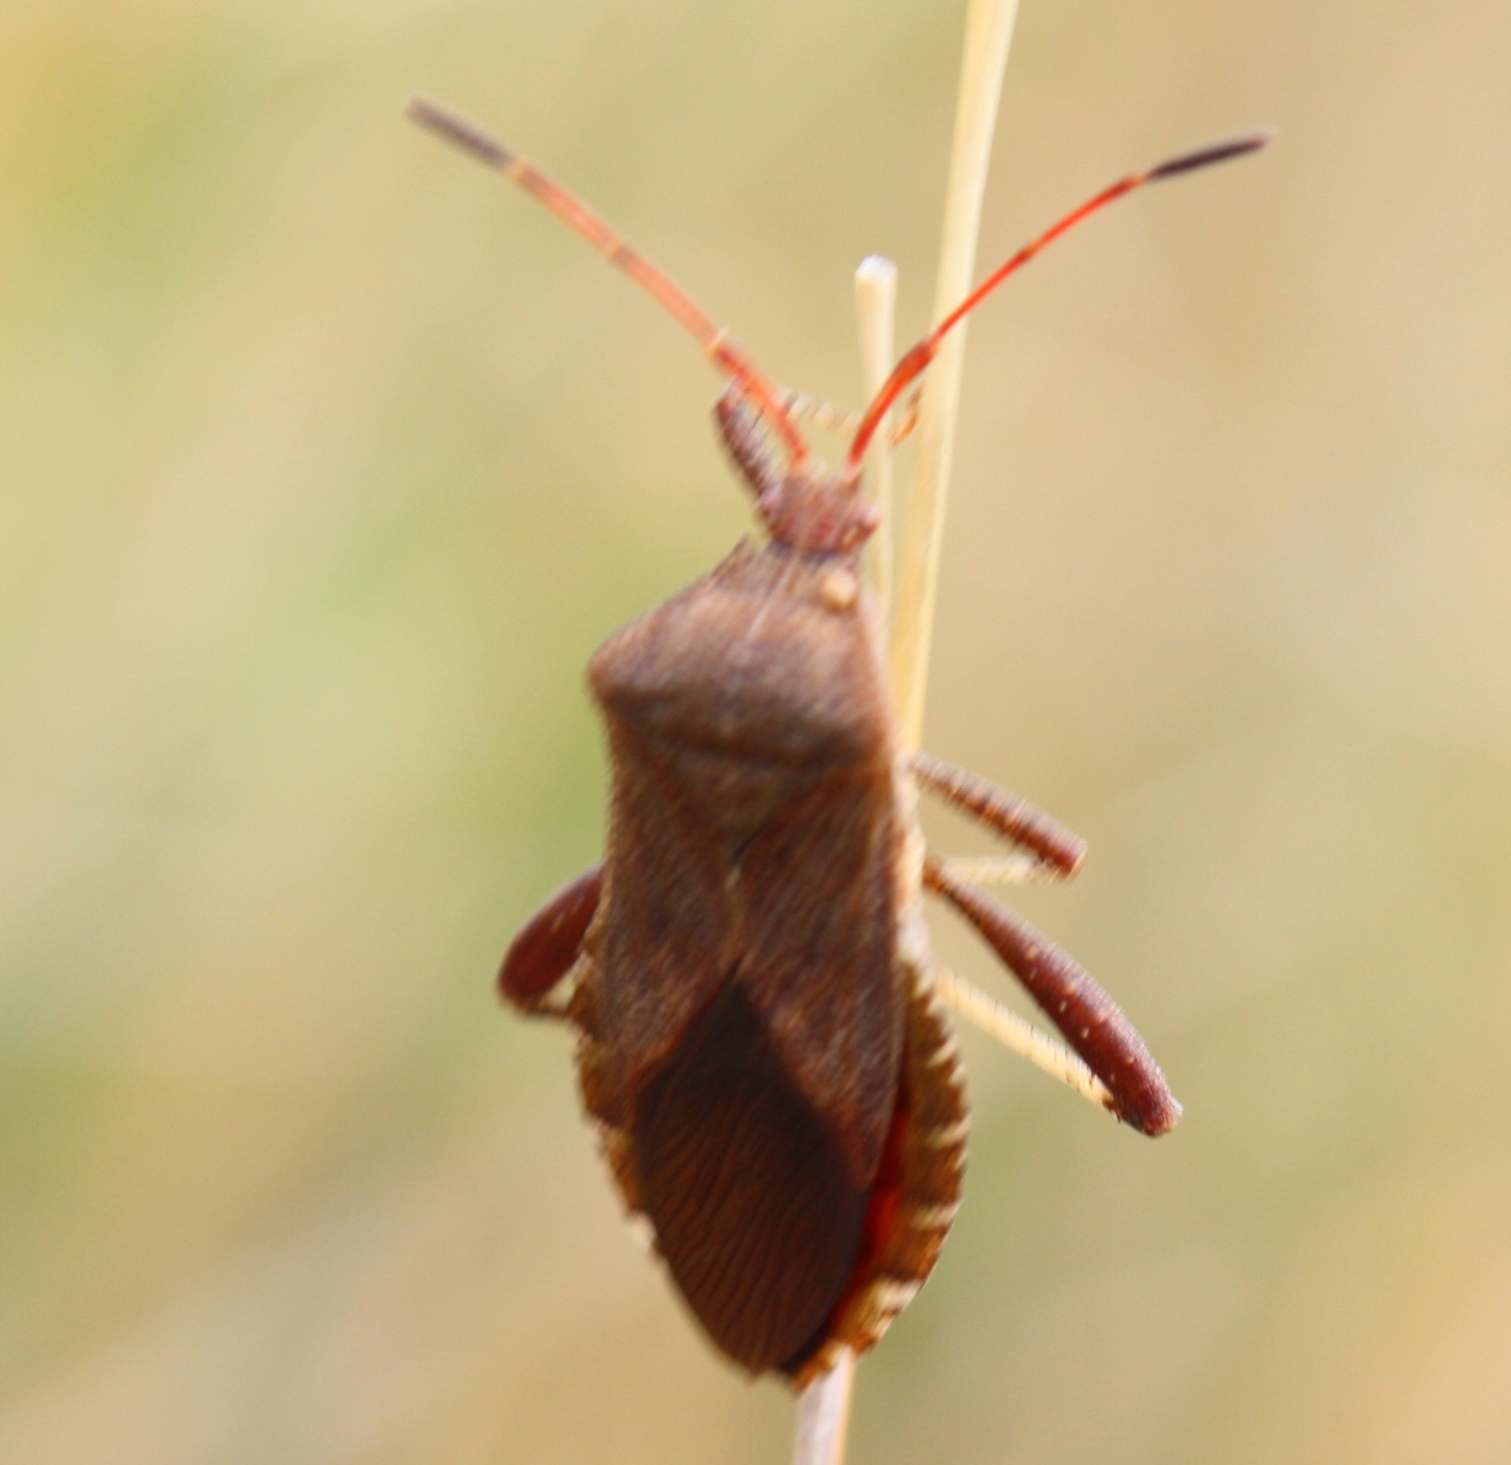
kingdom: Animalia
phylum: Arthropoda
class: Insecta
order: Hemiptera
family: Coreidae
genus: Euthochtha
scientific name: Euthochtha galeator
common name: Helmeted squash bug
